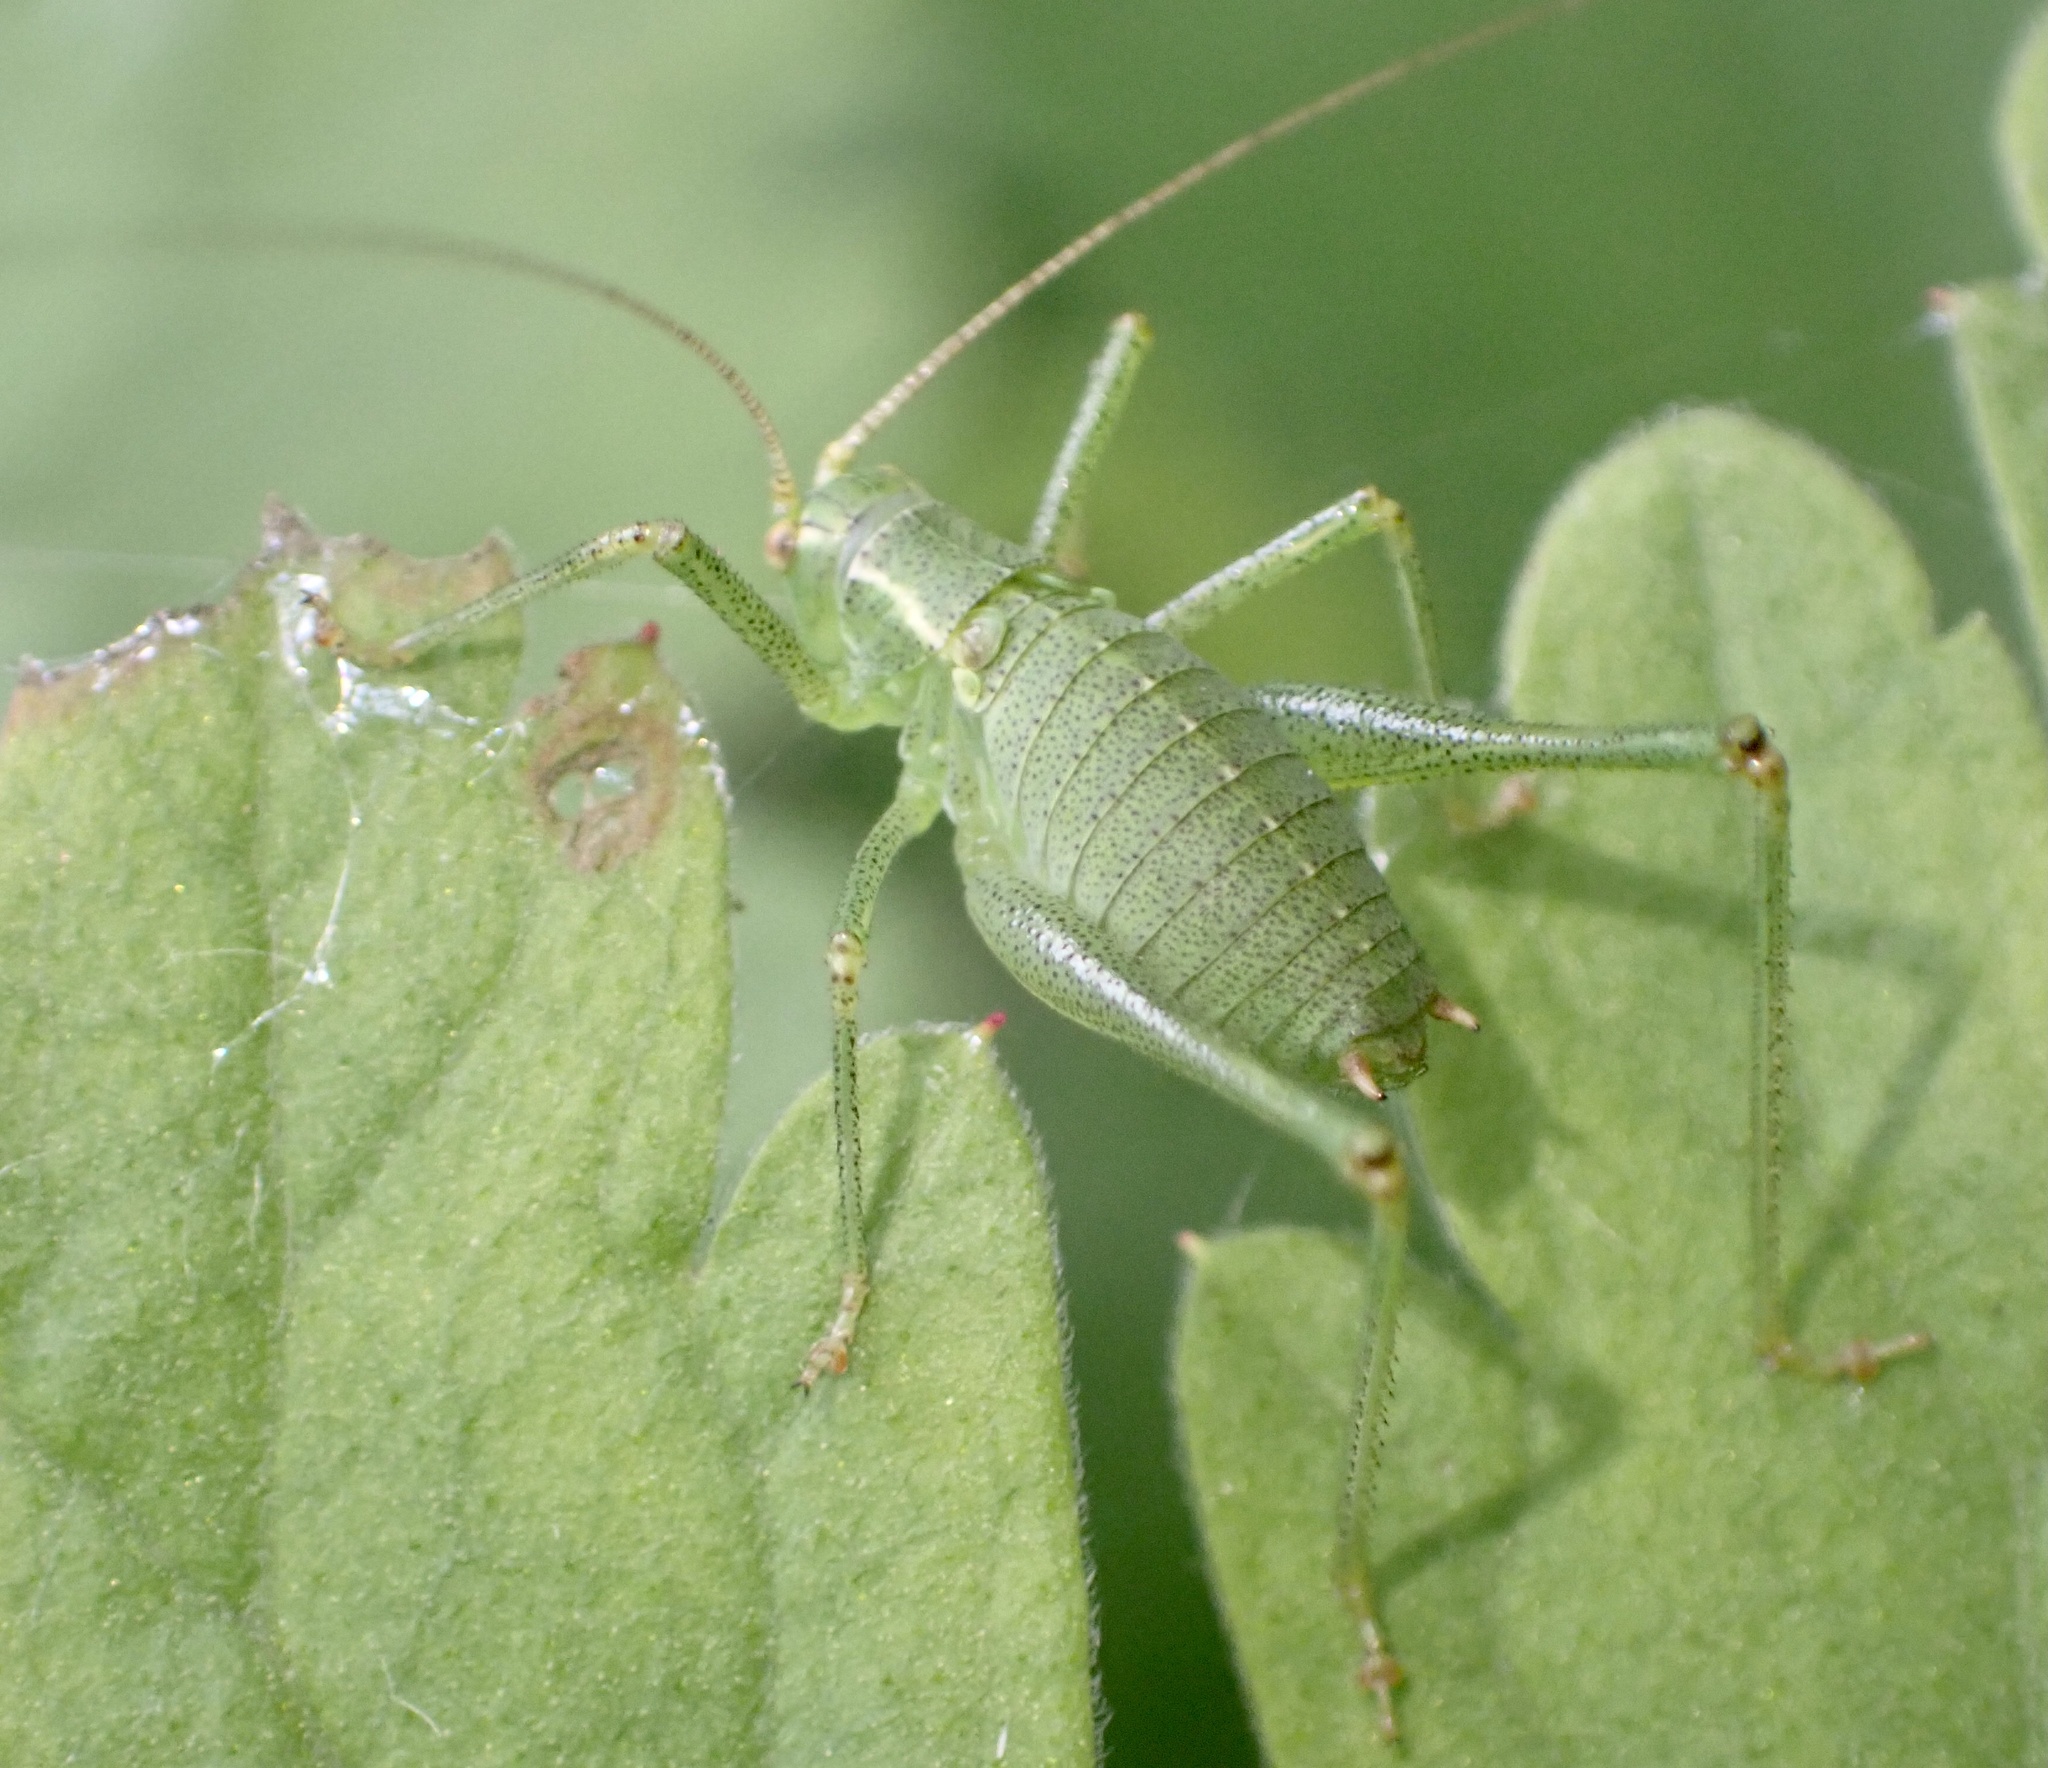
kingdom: Animalia
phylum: Arthropoda
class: Insecta
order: Orthoptera
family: Tettigoniidae
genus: Leptophyes
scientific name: Leptophyes punctatissima
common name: Speckled bush-cricket
